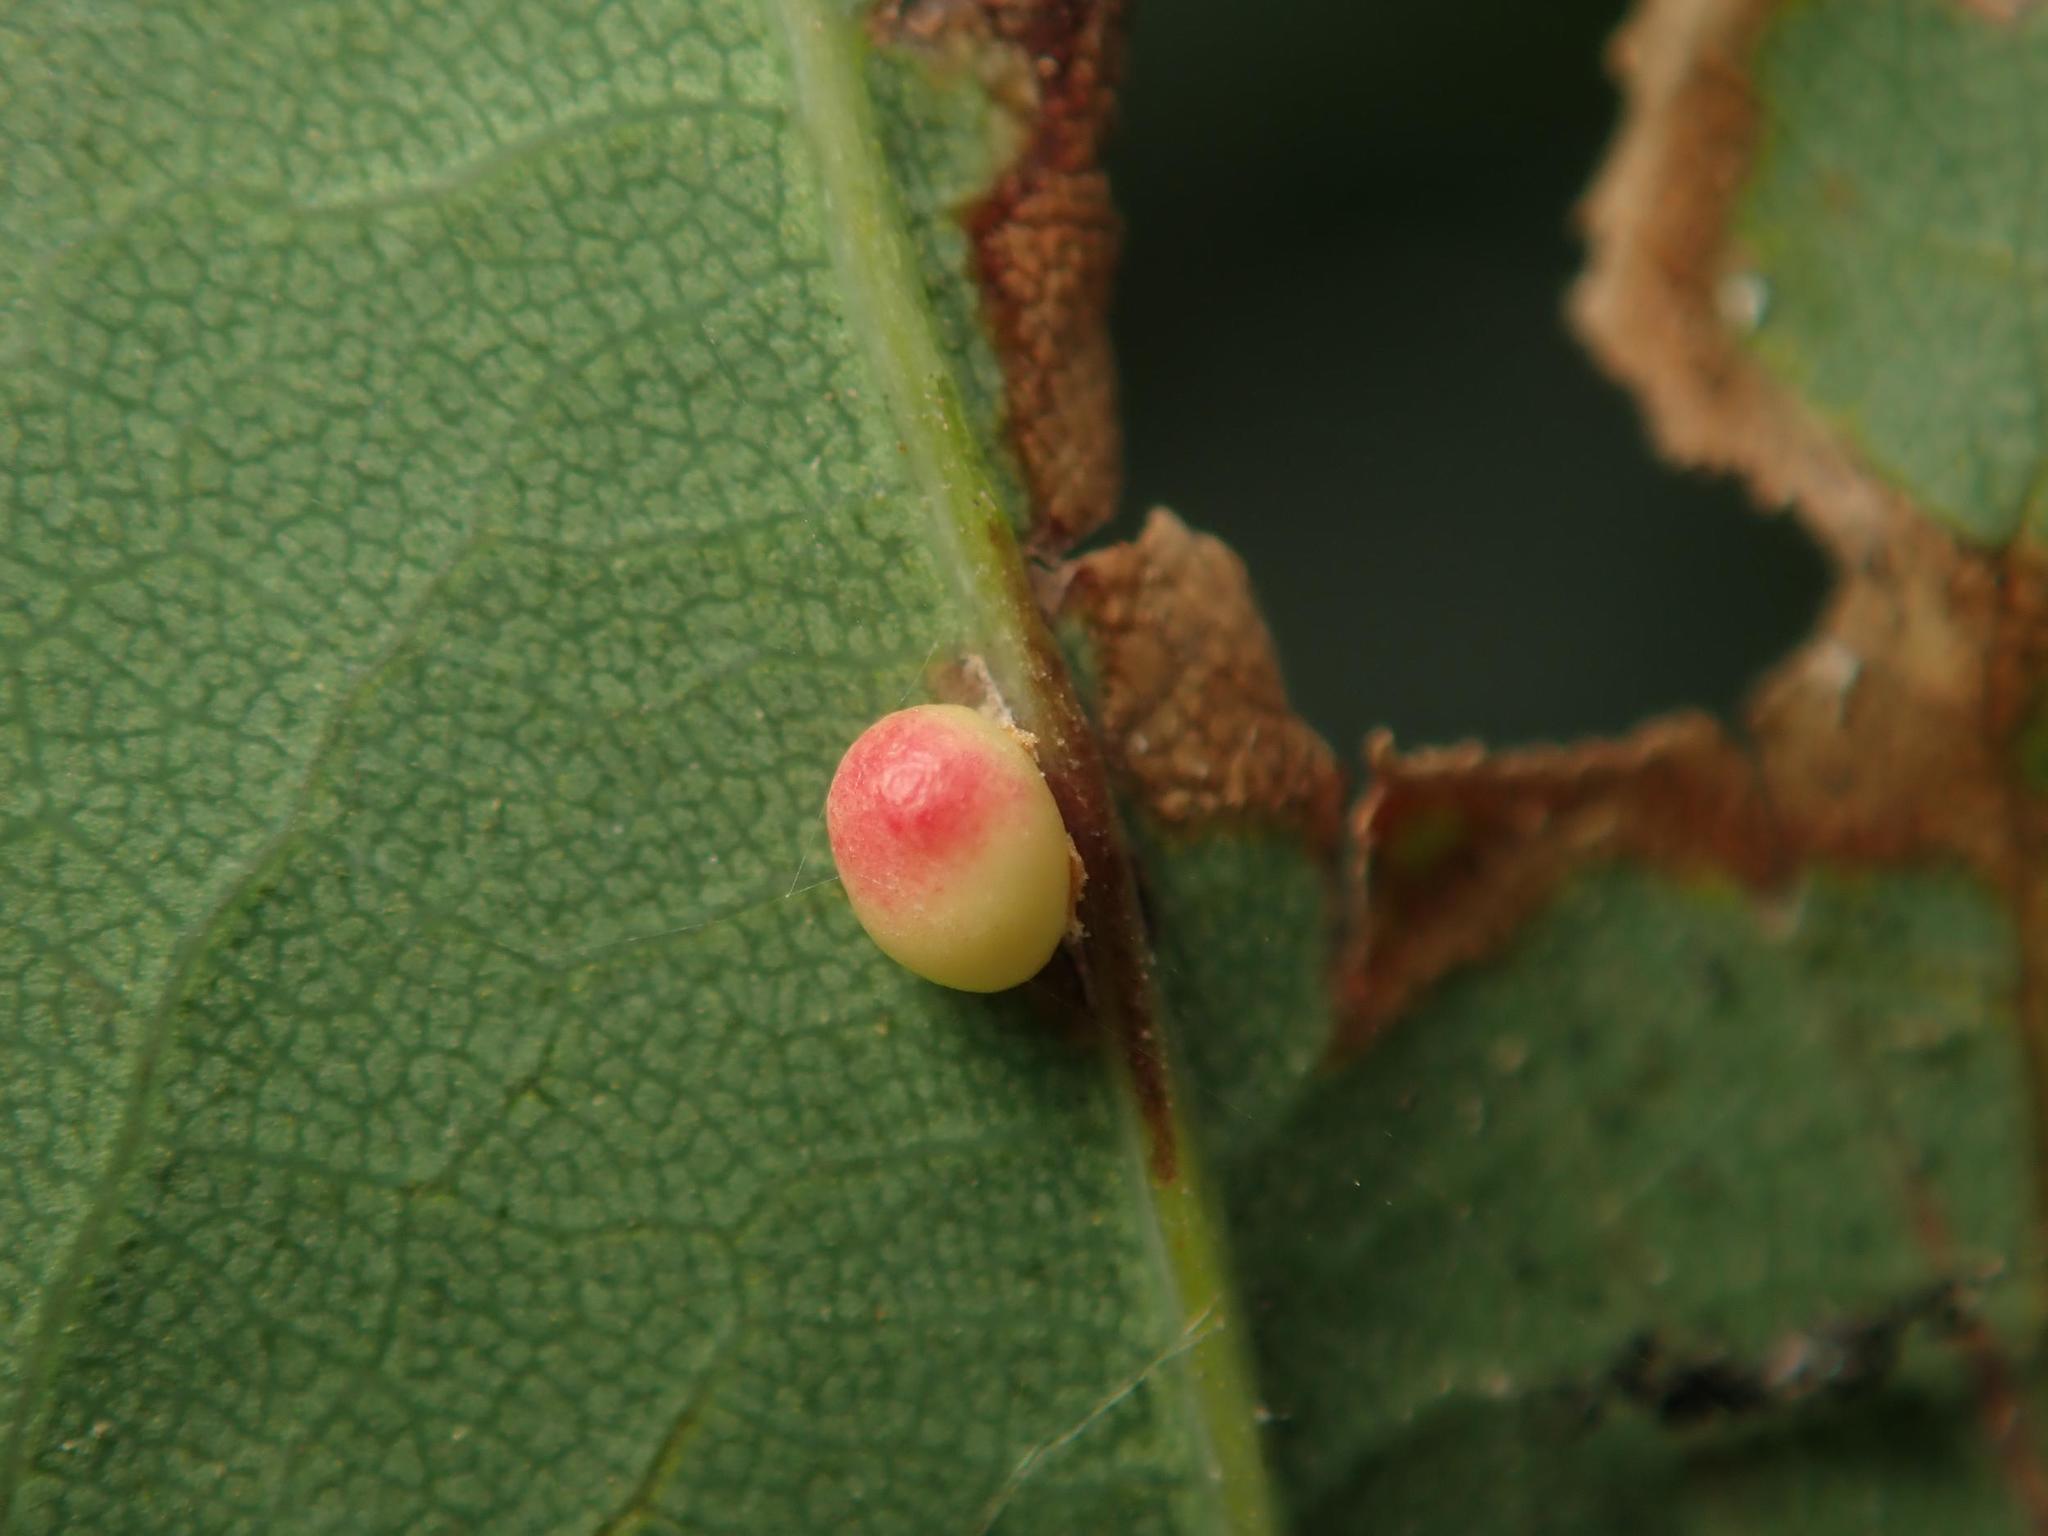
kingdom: Animalia
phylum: Arthropoda
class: Insecta
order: Hymenoptera
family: Cynipidae
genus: Neuroterus
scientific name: Neuroterus anthracinus
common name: Oyster gall
